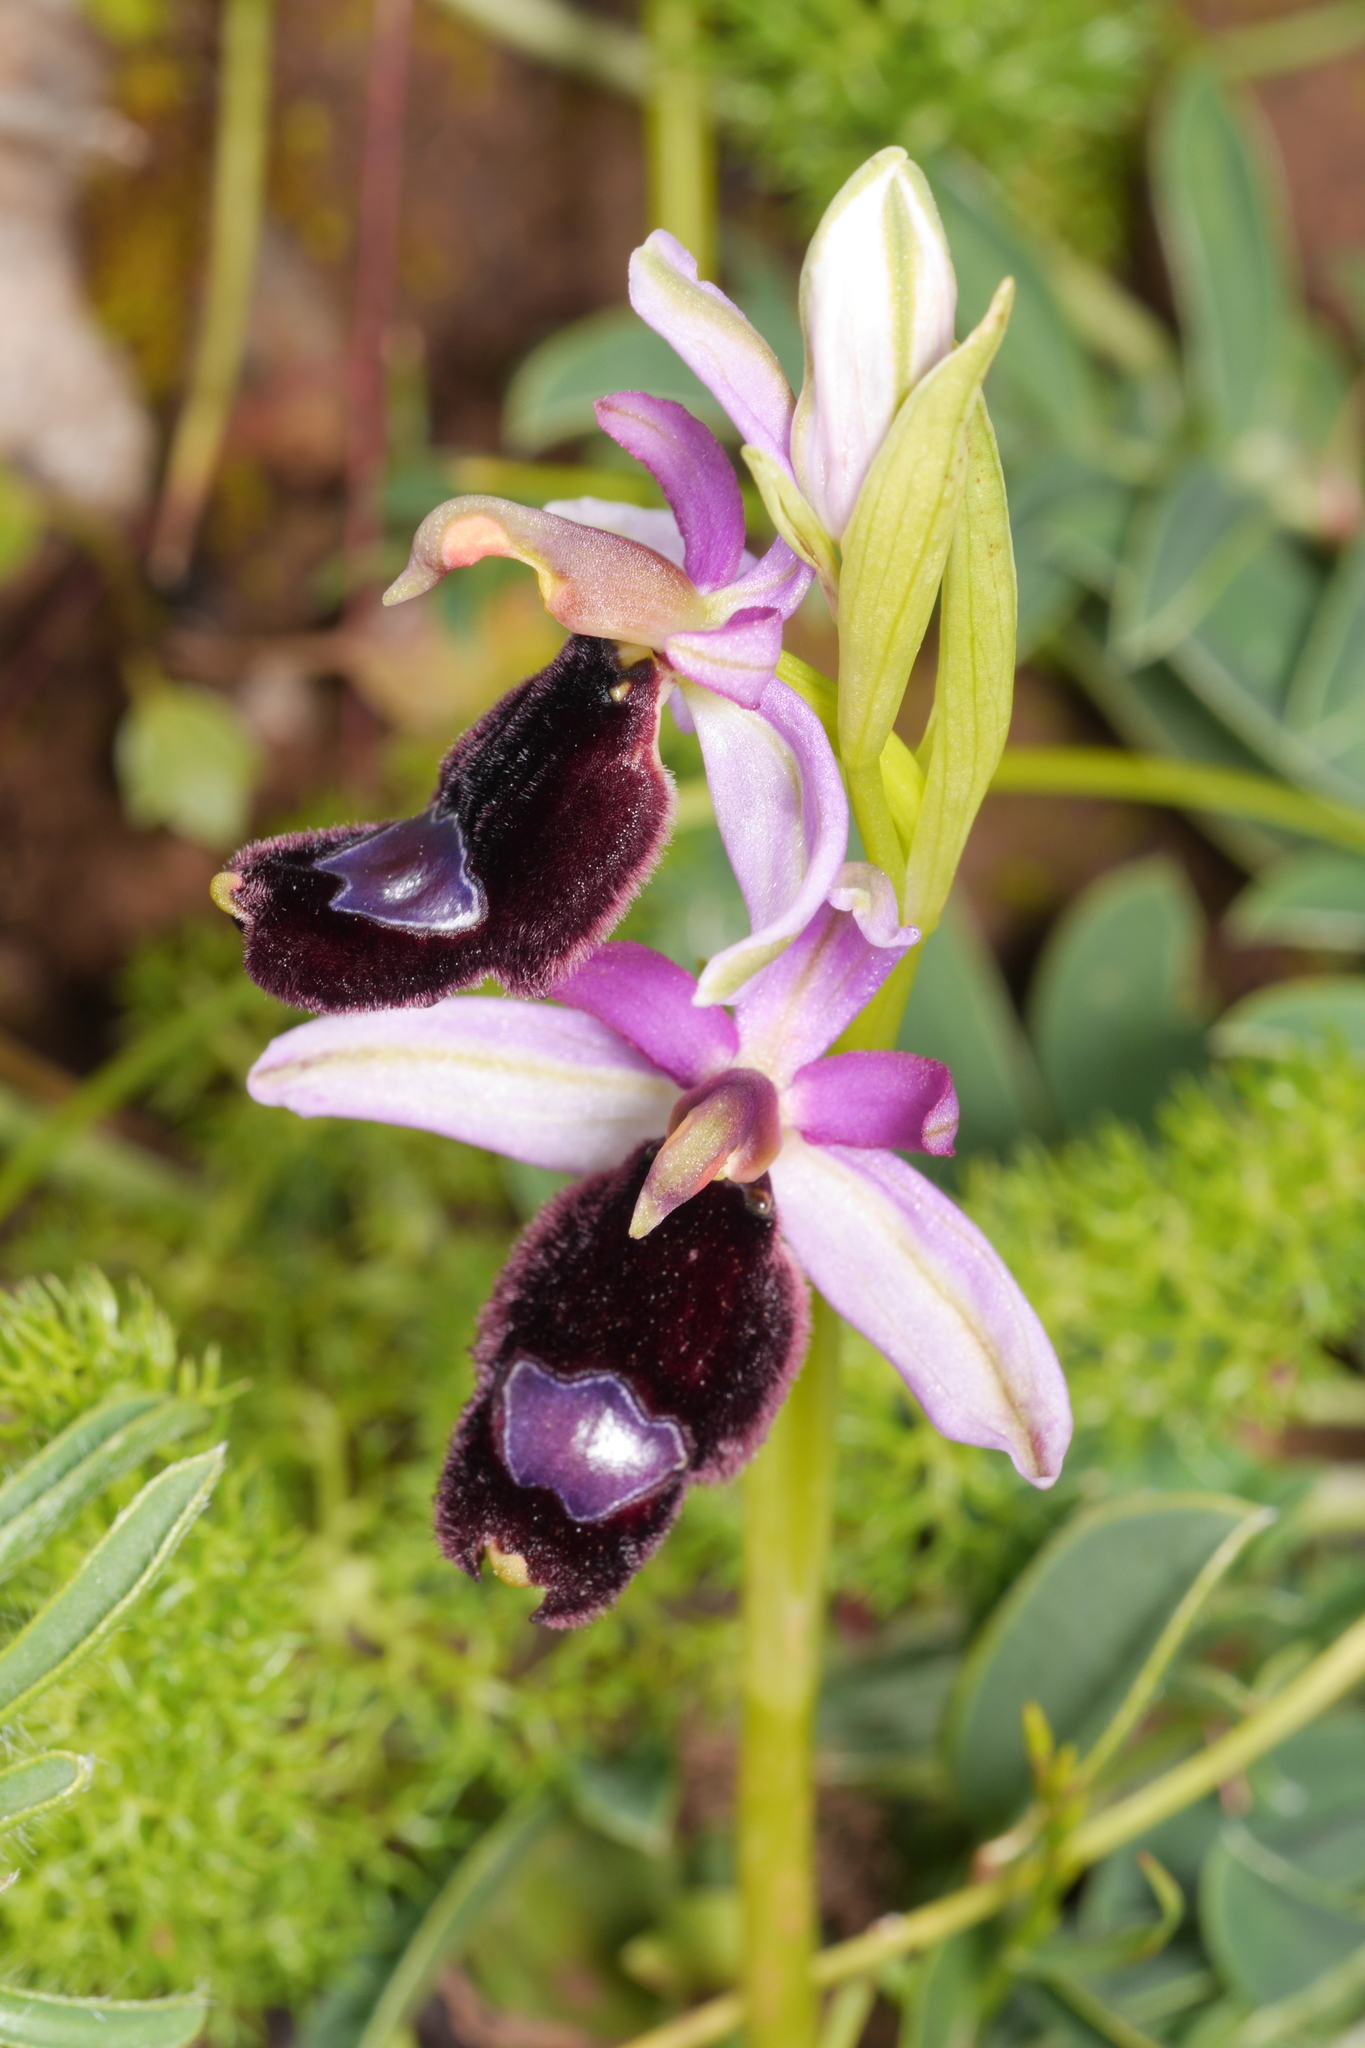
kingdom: Plantae
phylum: Tracheophyta
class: Liliopsida
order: Asparagales
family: Orchidaceae
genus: Ophrys
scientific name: Ophrys bertolonii
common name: Bertoloni's bee orchid
